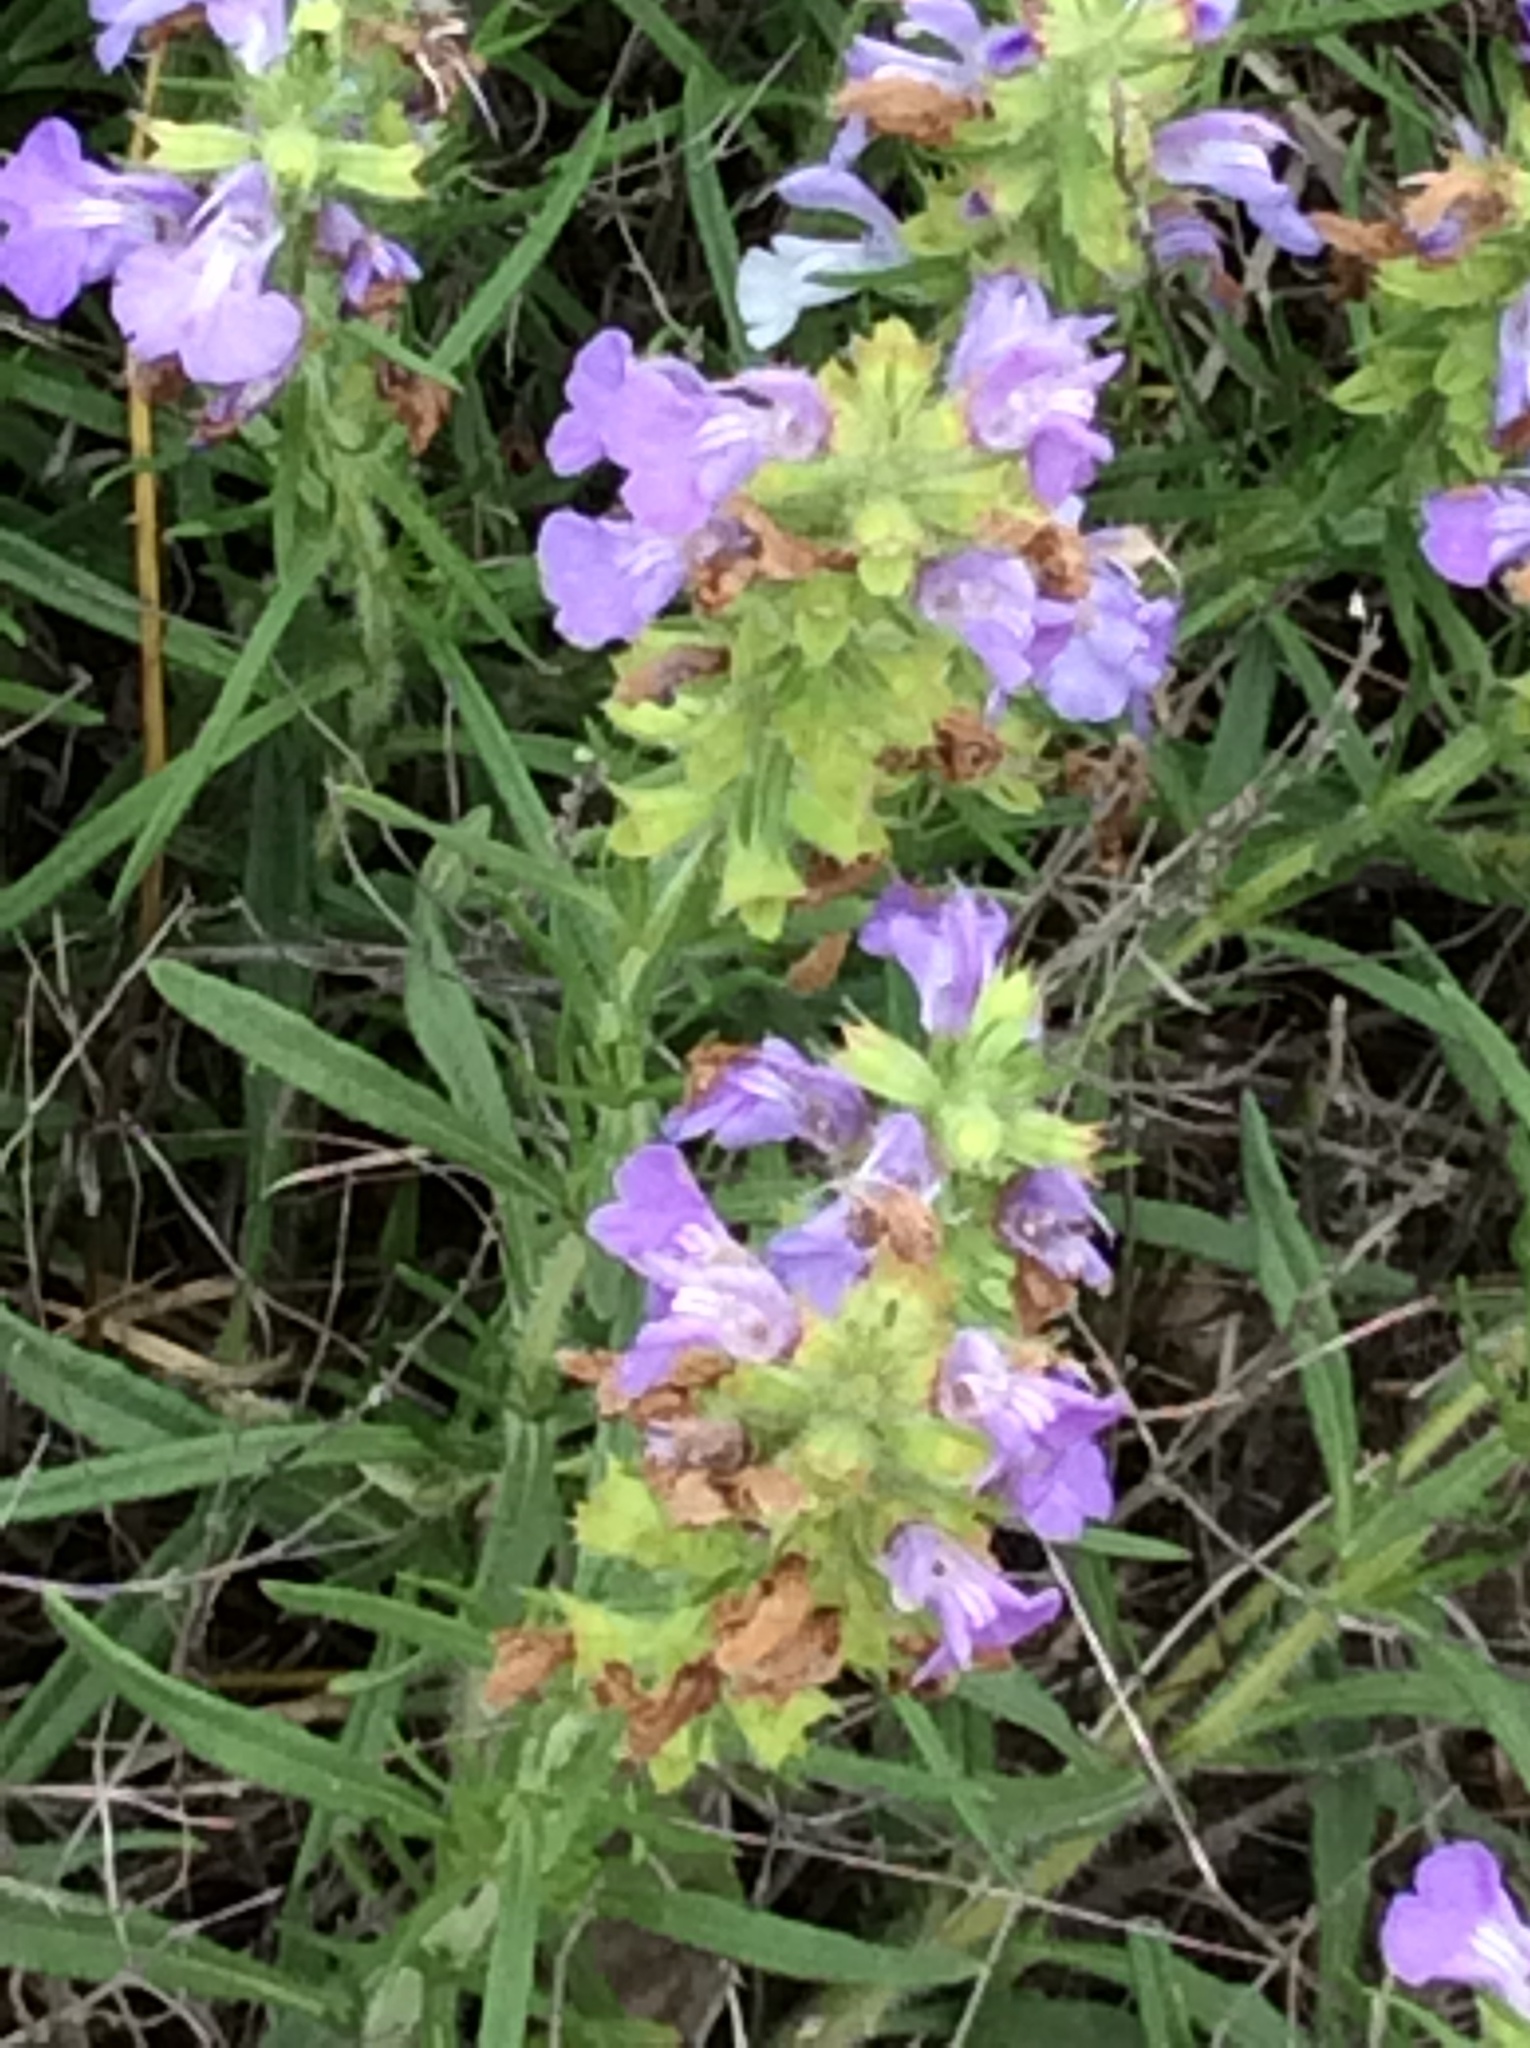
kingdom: Plantae
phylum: Tracheophyta
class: Magnoliopsida
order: Lamiales
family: Lamiaceae
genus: Salvia
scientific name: Salvia engelmannii
